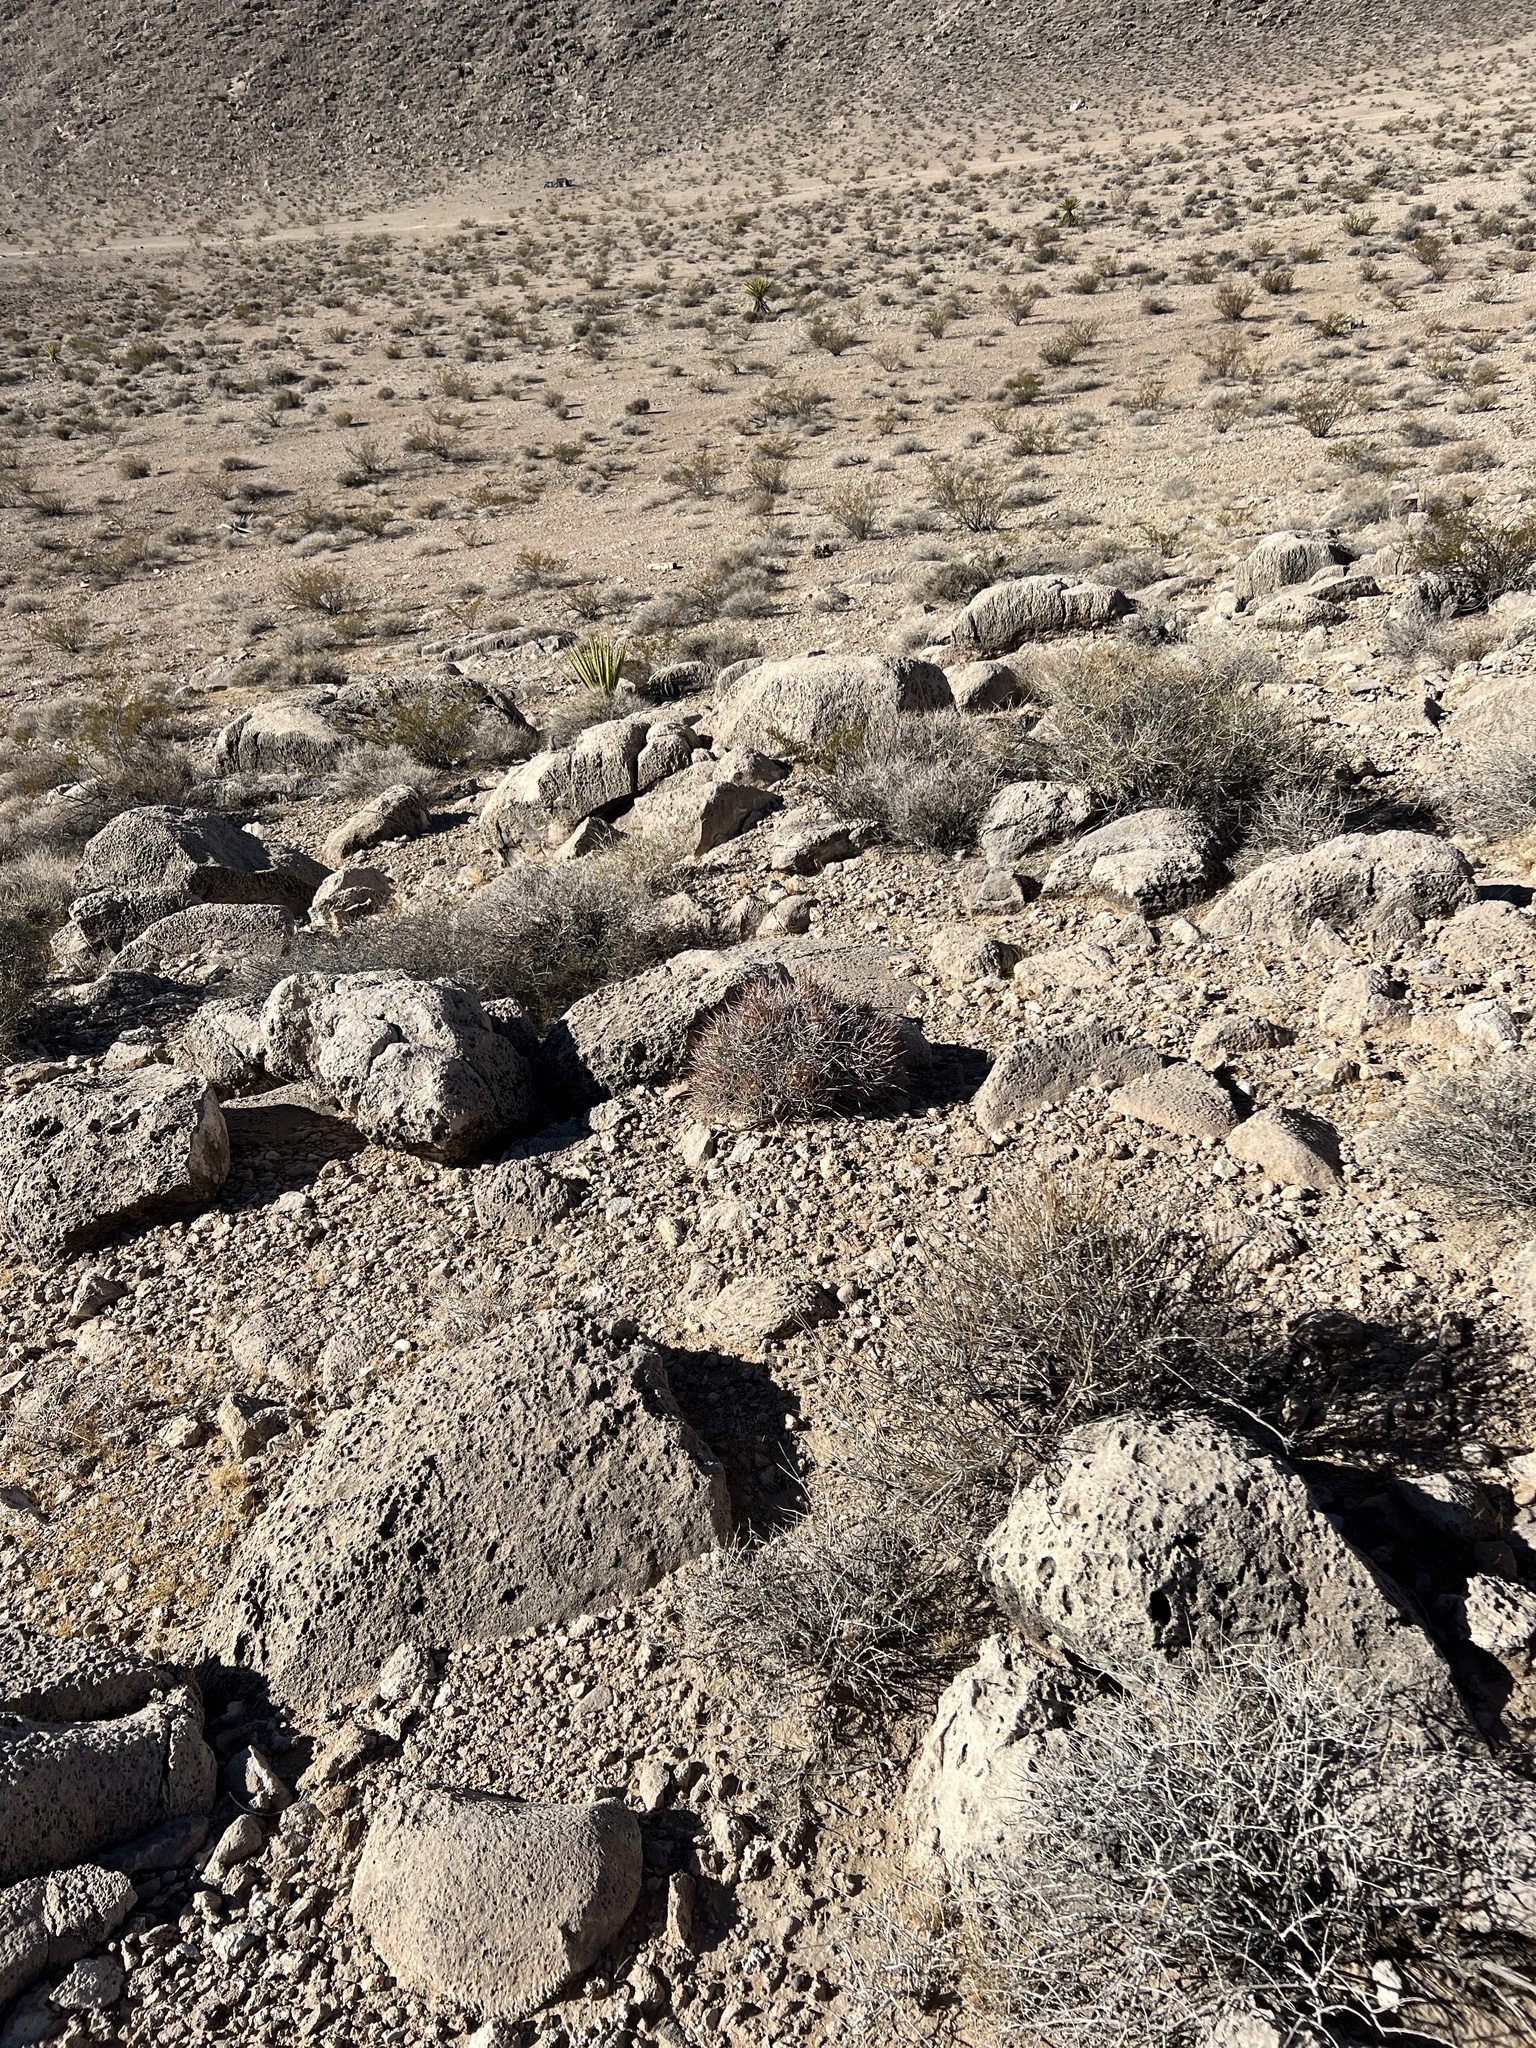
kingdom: Plantae
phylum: Tracheophyta
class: Magnoliopsida
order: Caryophyllales
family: Cactaceae
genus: Echinocactus
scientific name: Echinocactus polycephalus
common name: Cottontop cactus
